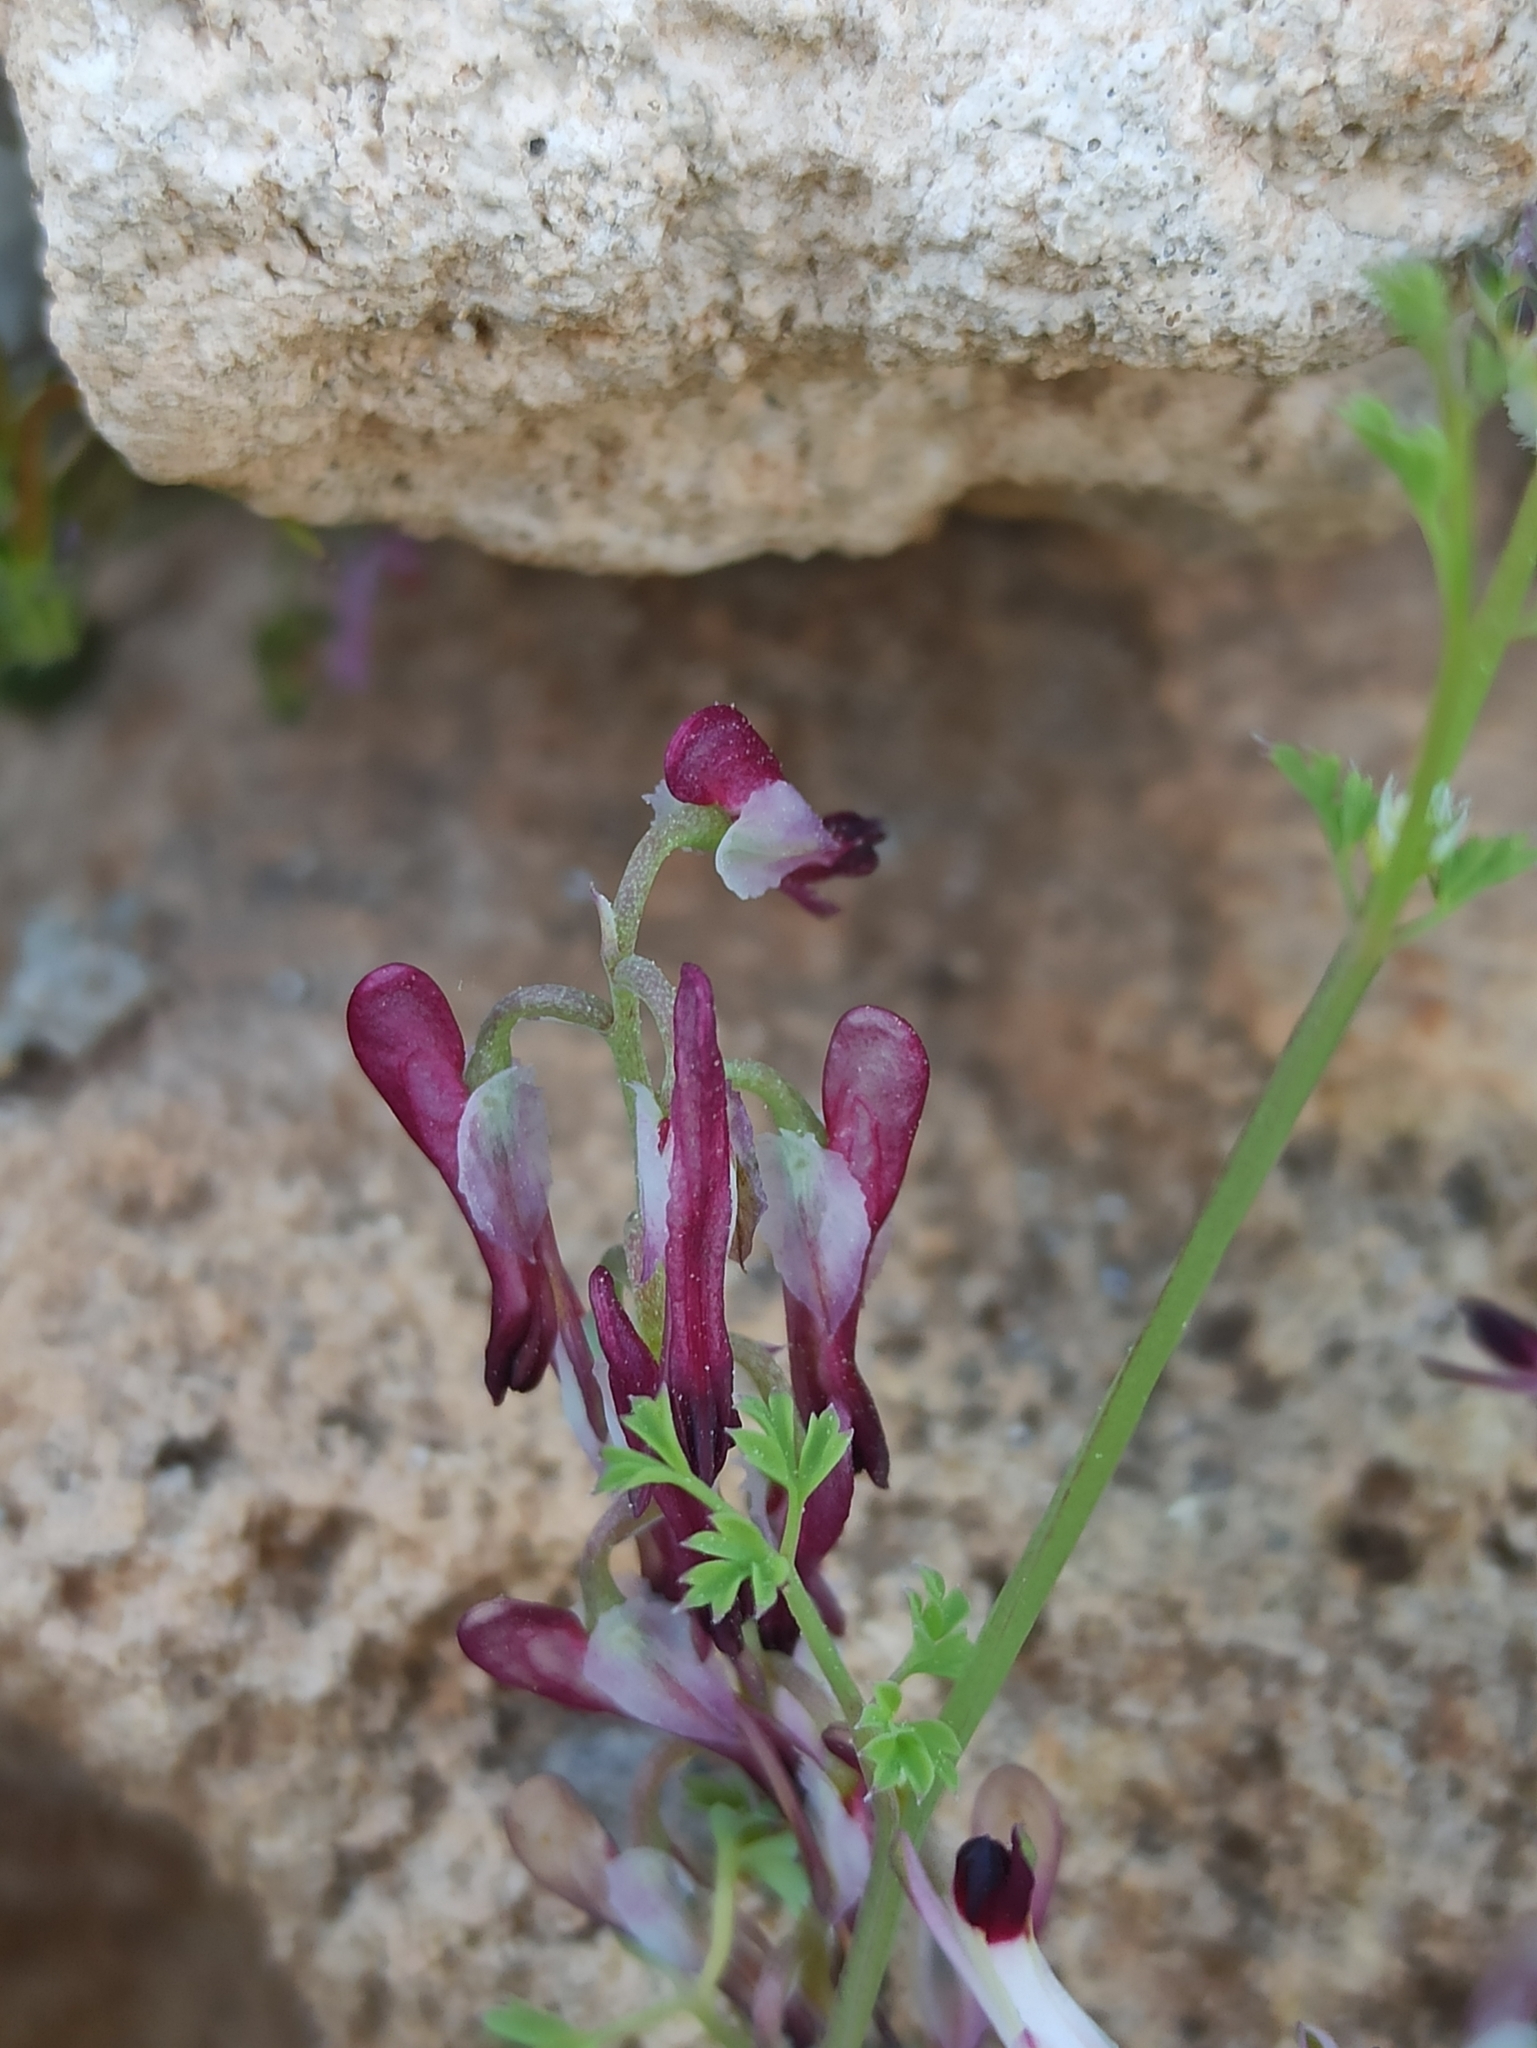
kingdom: Plantae
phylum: Tracheophyta
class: Magnoliopsida
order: Ranunculales
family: Papaveraceae
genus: Fumaria
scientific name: Fumaria capreolata
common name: White ramping-fumitory
